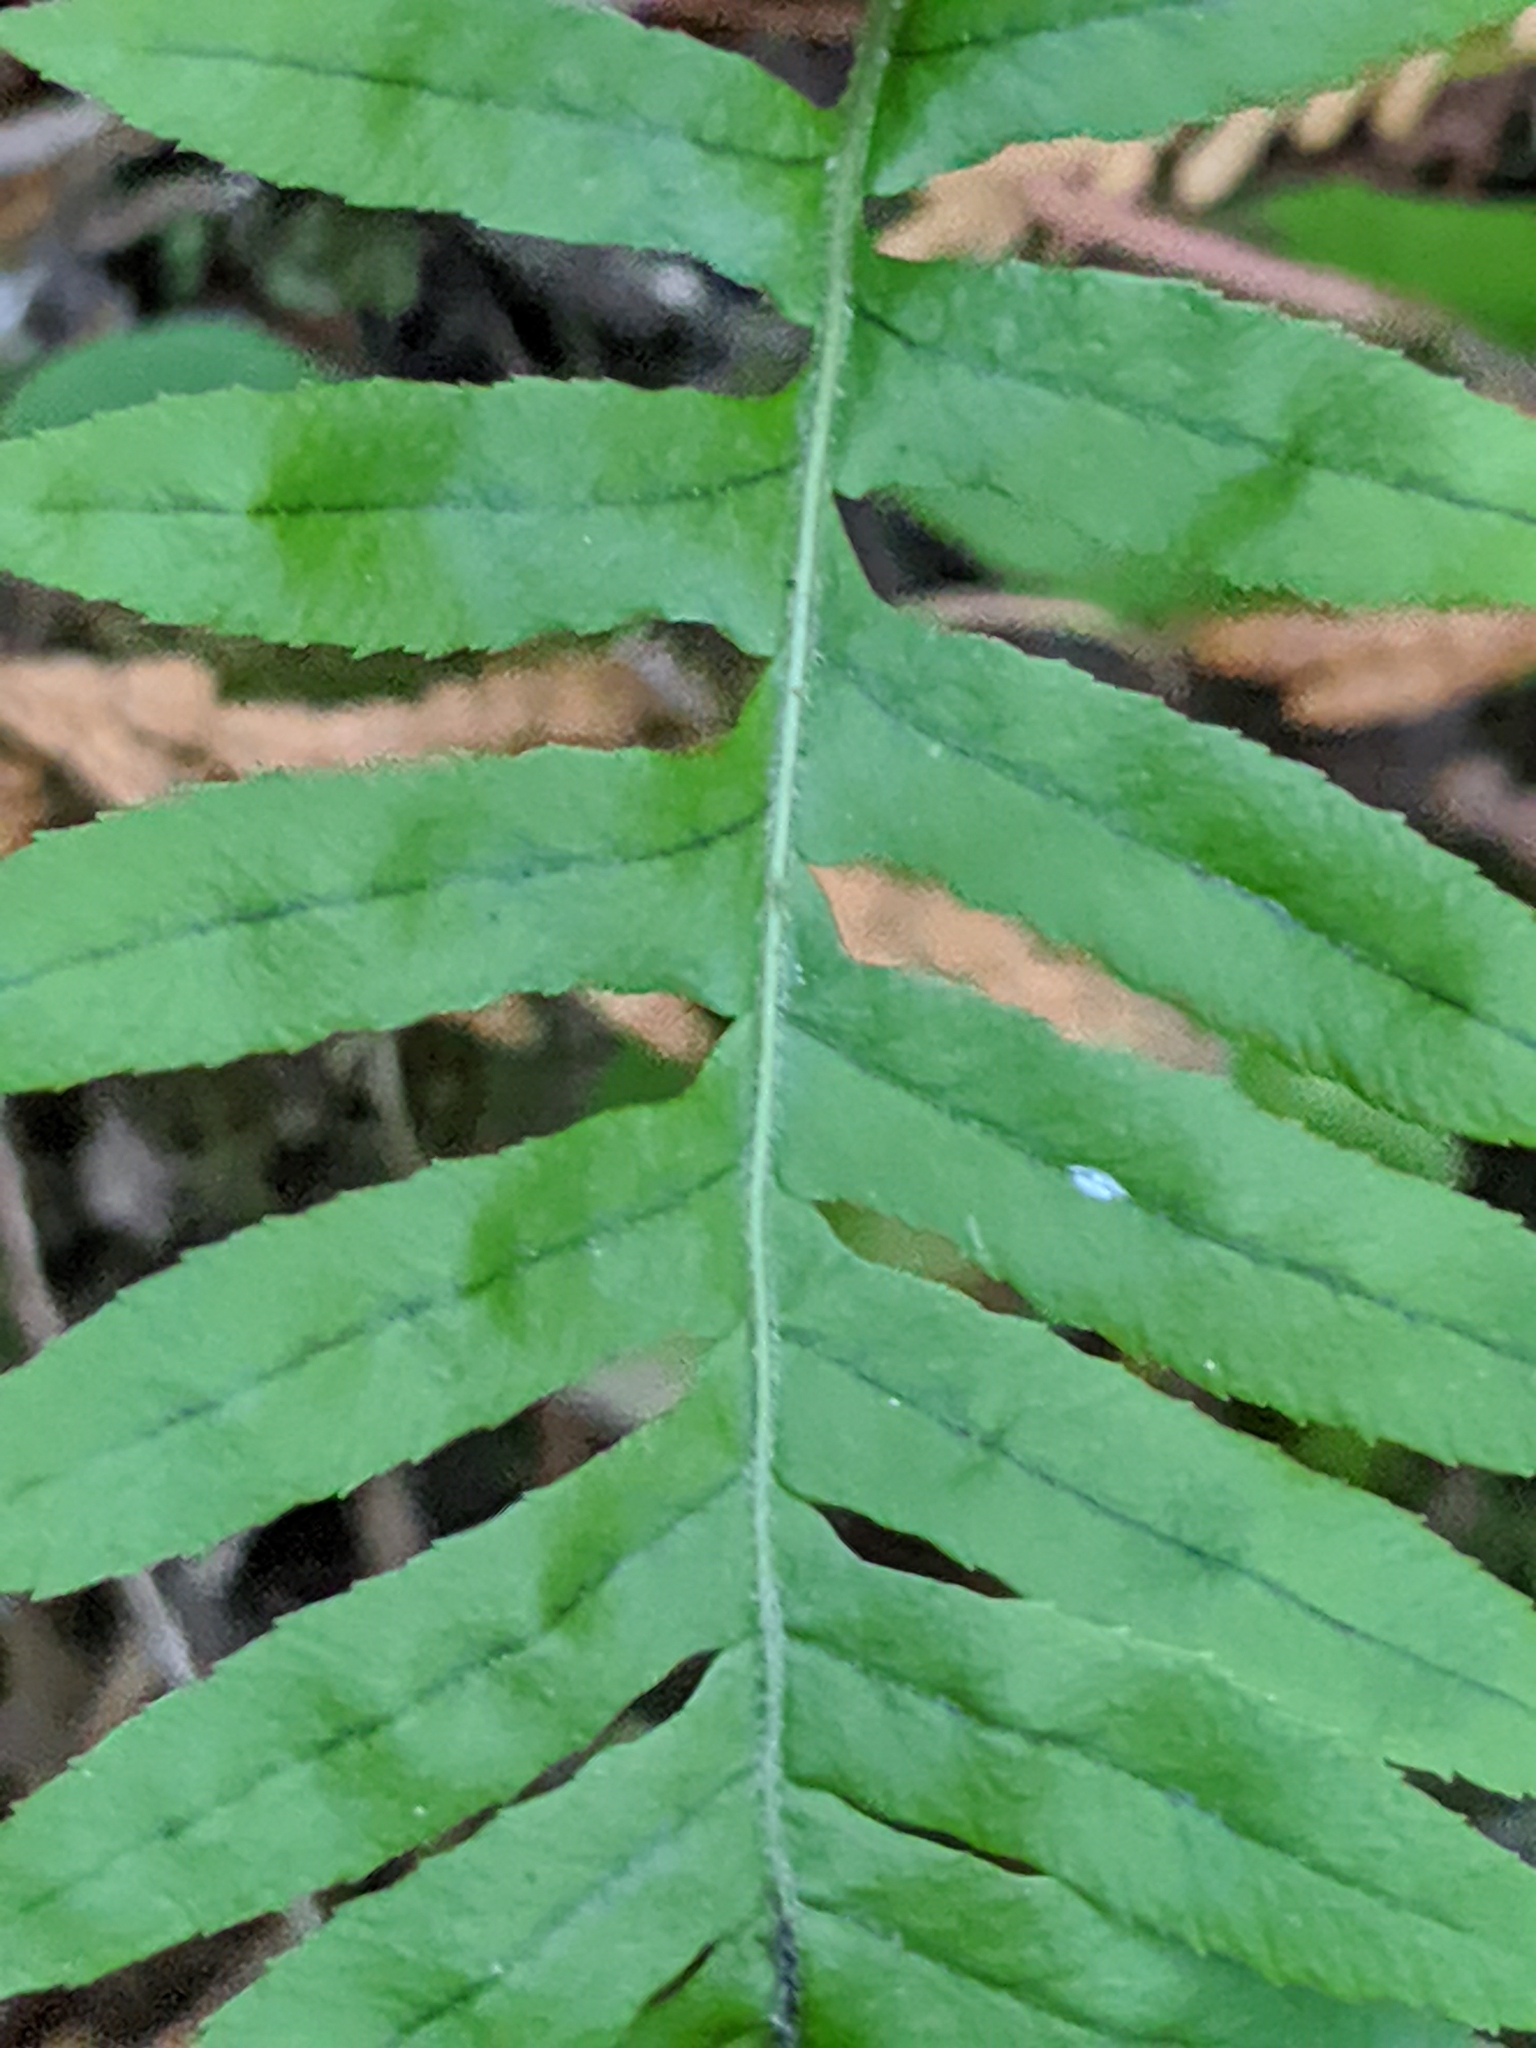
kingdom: Plantae
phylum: Tracheophyta
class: Polypodiopsida
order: Polypodiales
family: Polypodiaceae
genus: Polypodium
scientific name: Polypodium glycyrrhiza
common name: Licorice fern
